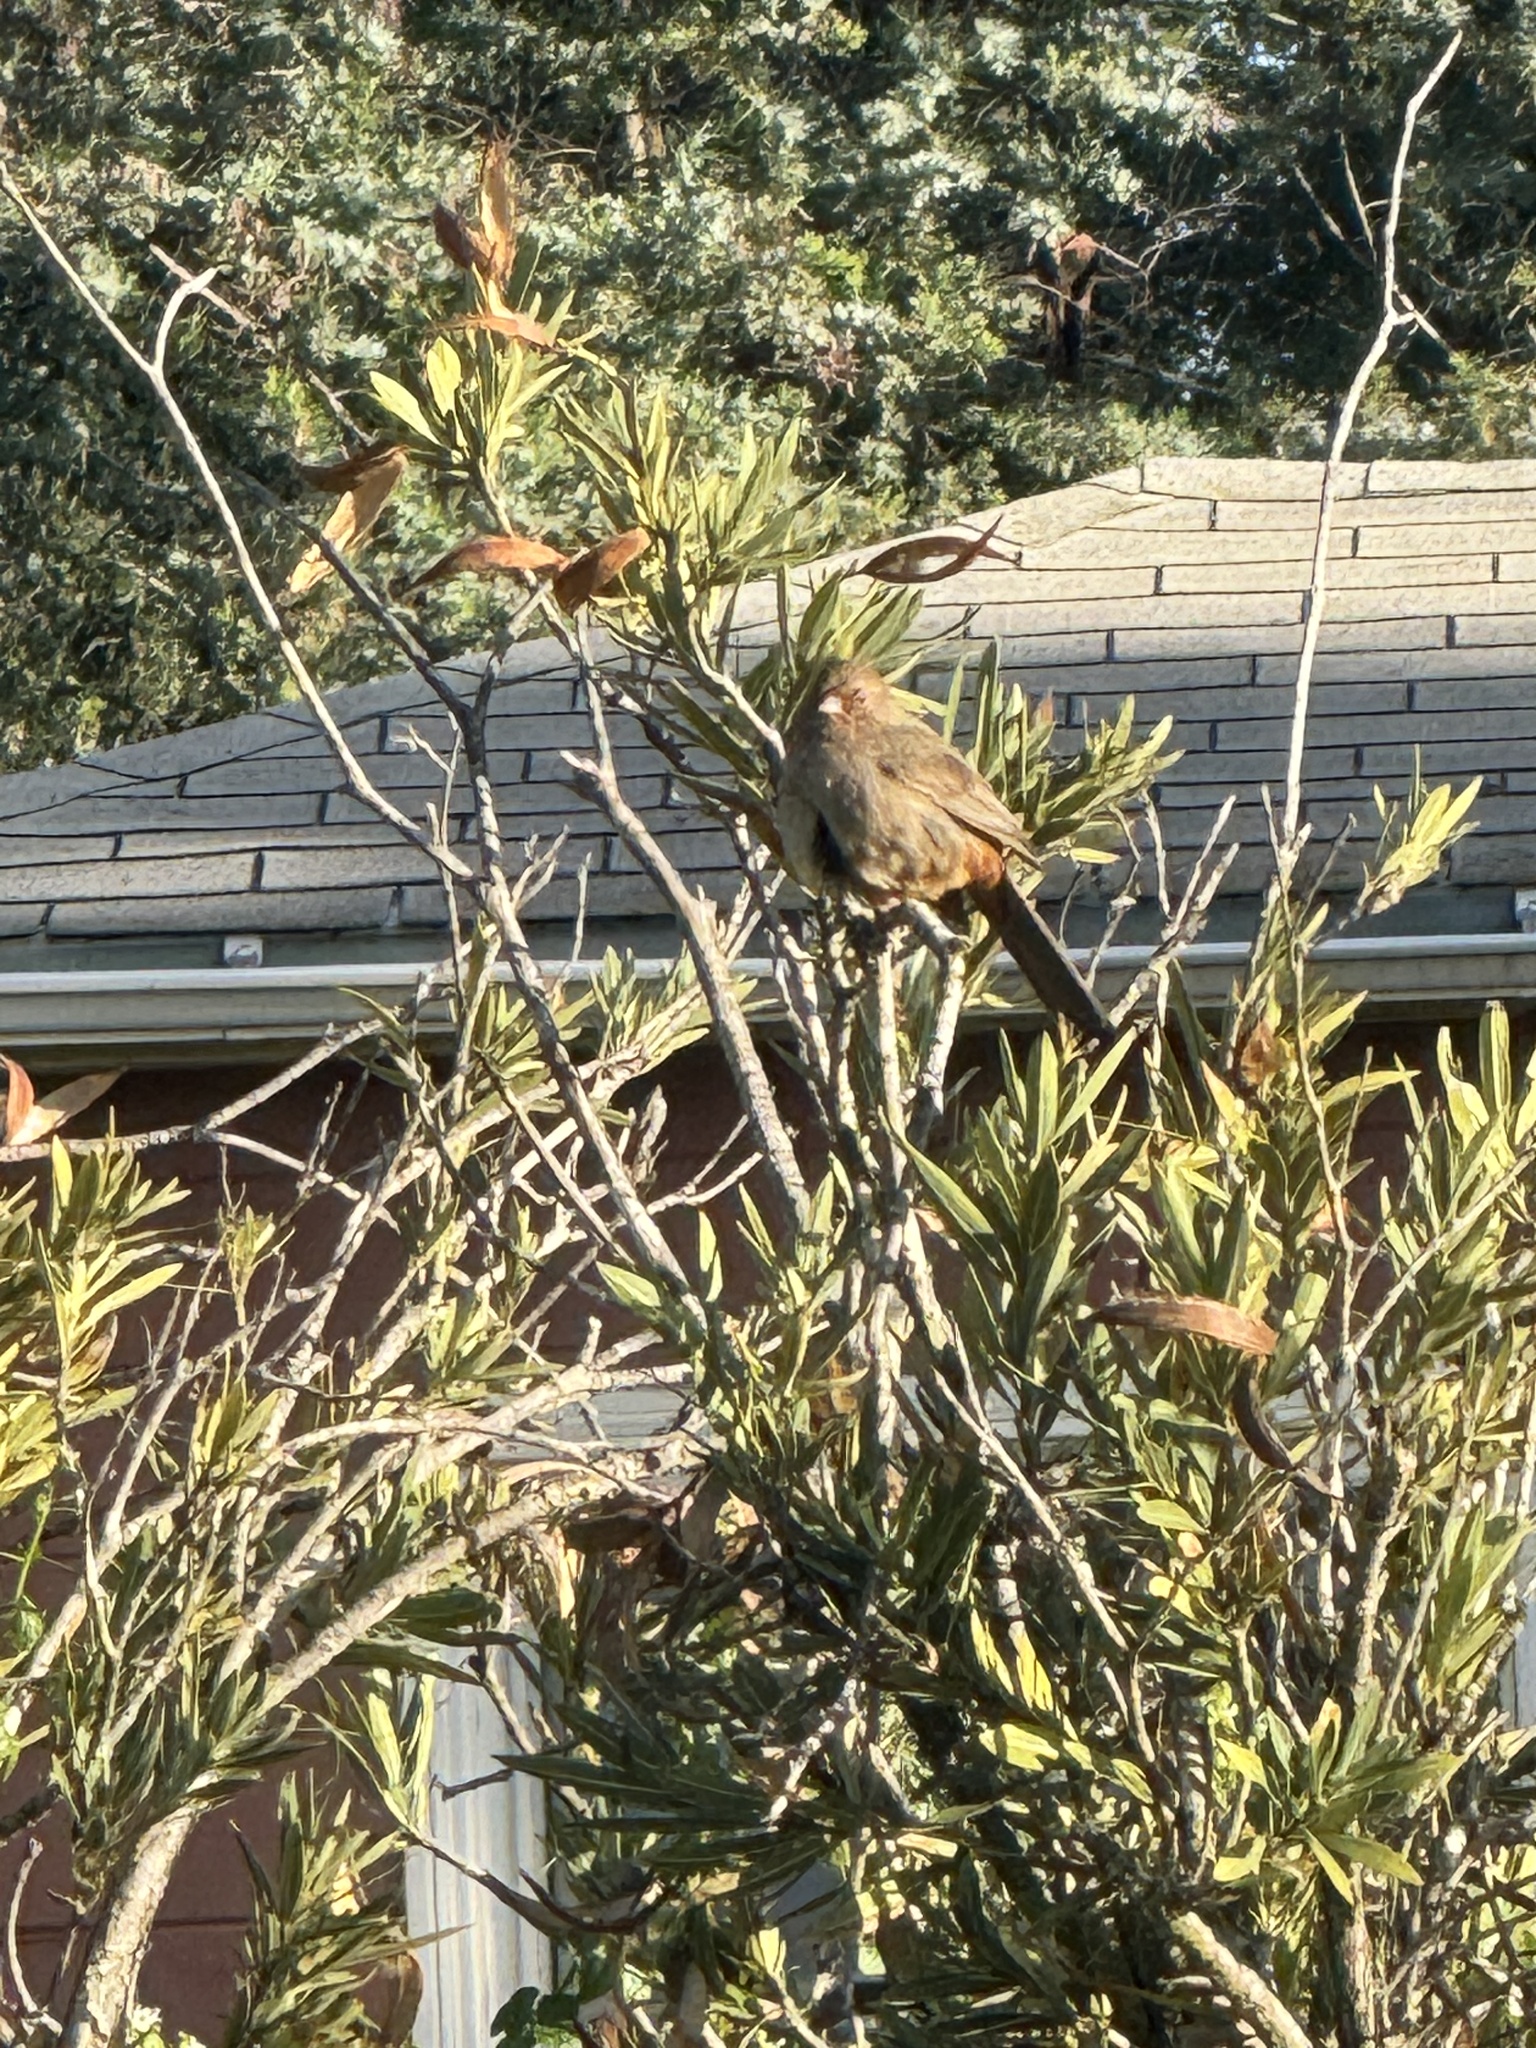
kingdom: Animalia
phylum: Chordata
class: Aves
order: Passeriformes
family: Passerellidae
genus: Melozone
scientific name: Melozone crissalis
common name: California towhee
